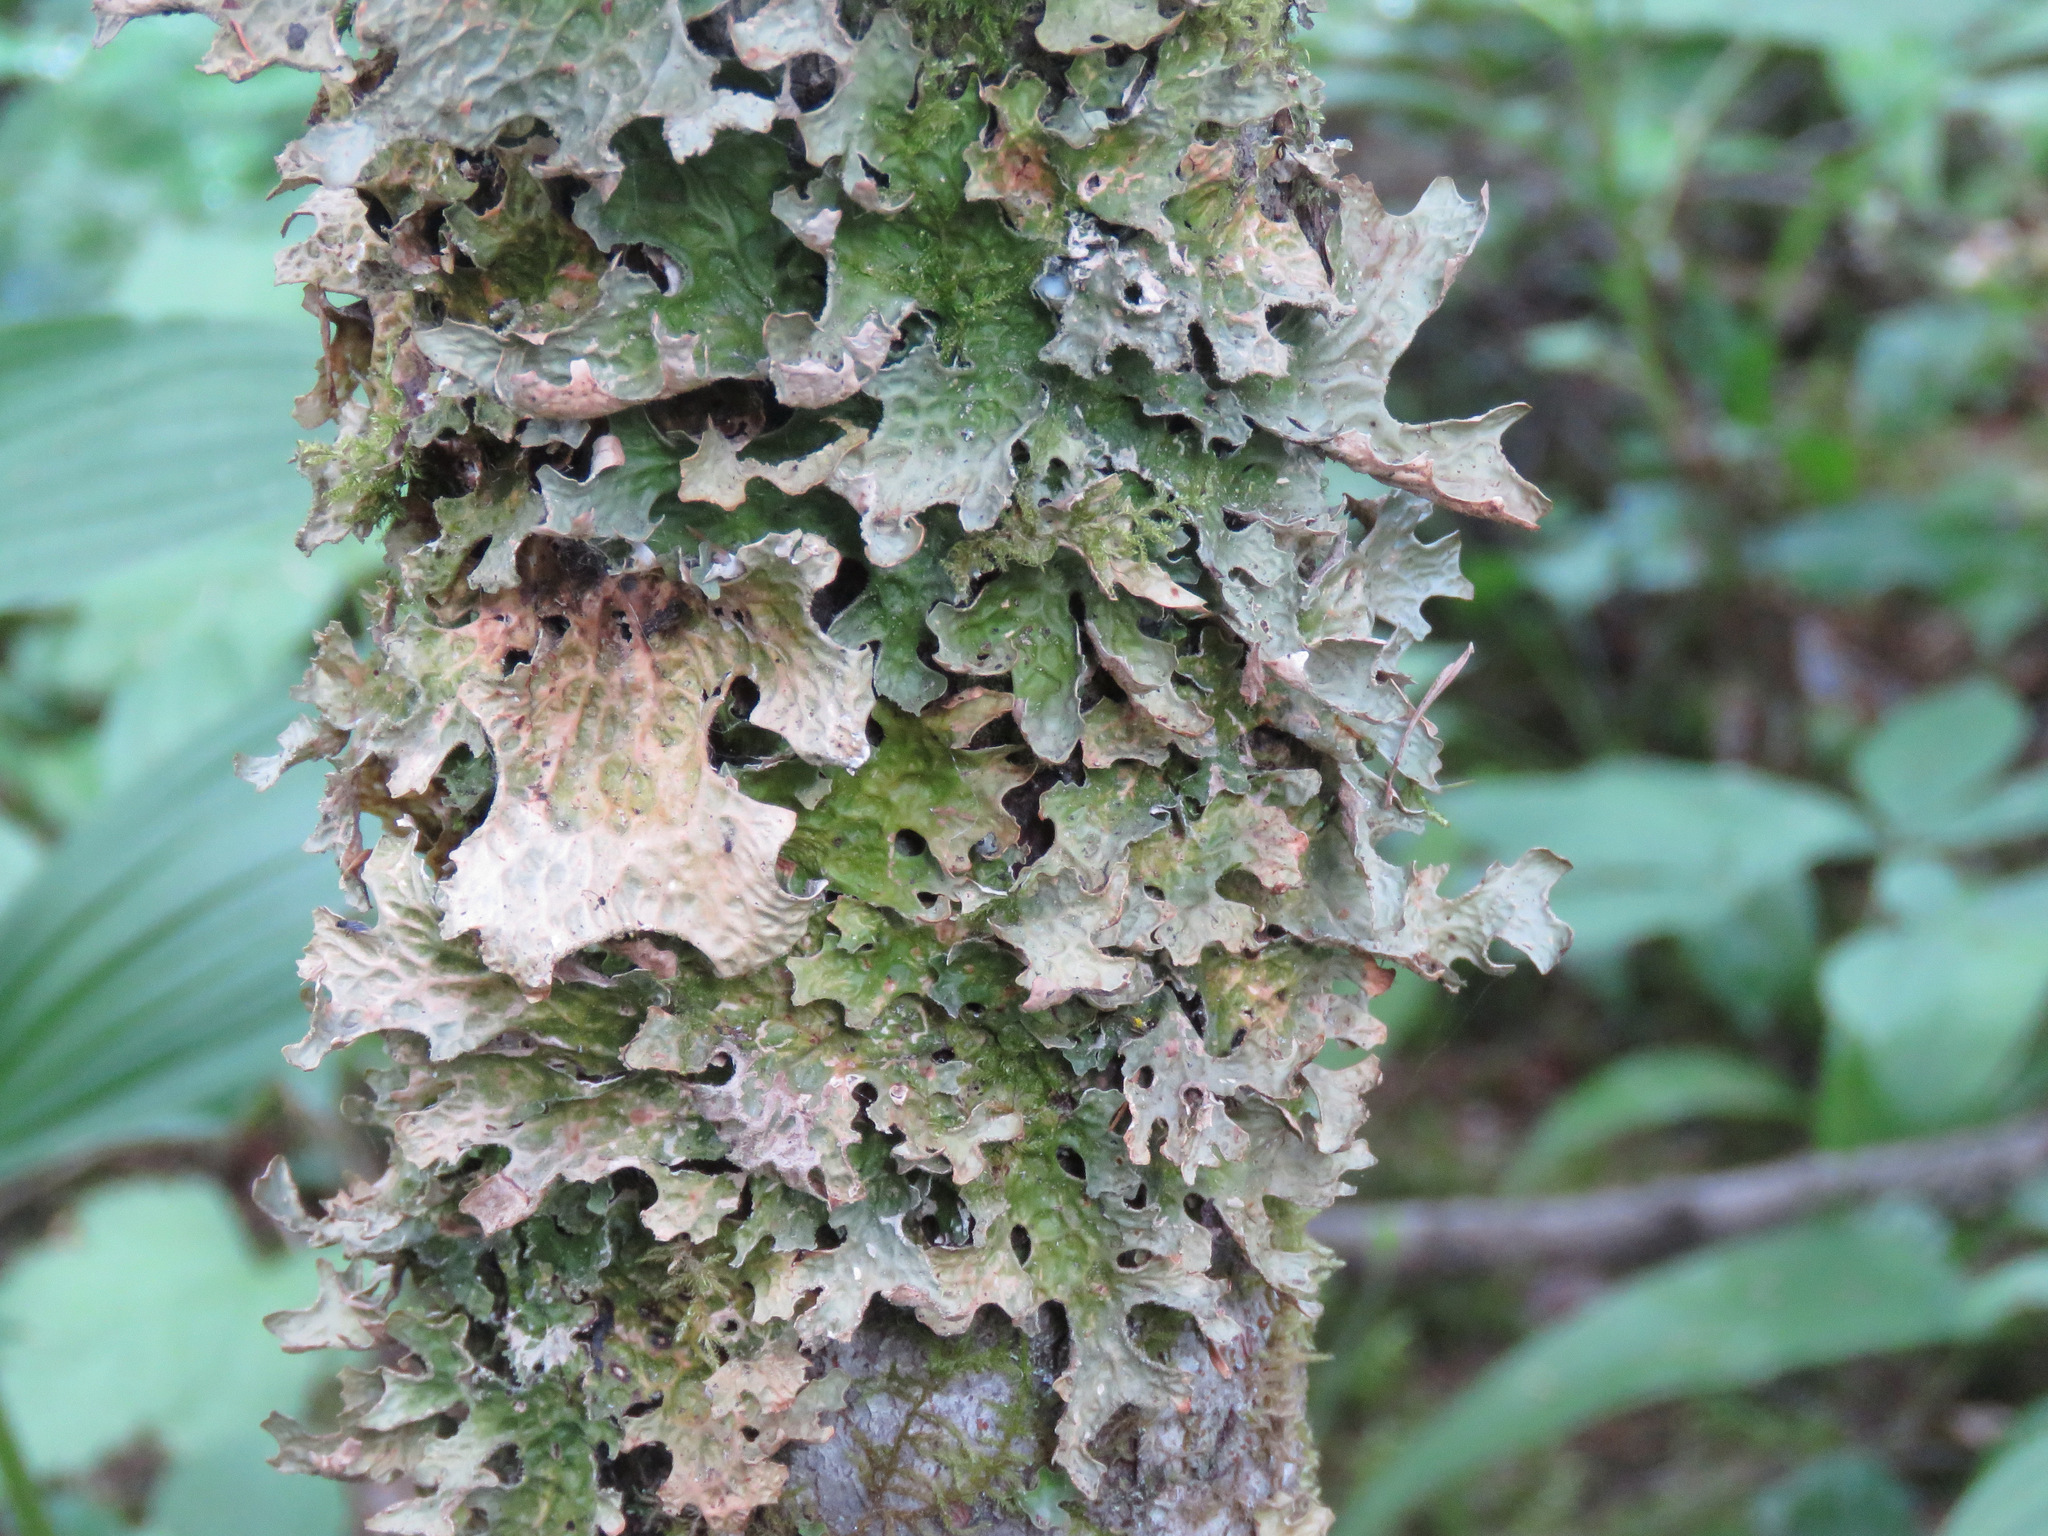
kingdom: Fungi
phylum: Ascomycota
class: Lecanoromycetes
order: Peltigerales
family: Lobariaceae
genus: Lobaria
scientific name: Lobaria pulmonaria
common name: Lungwort
